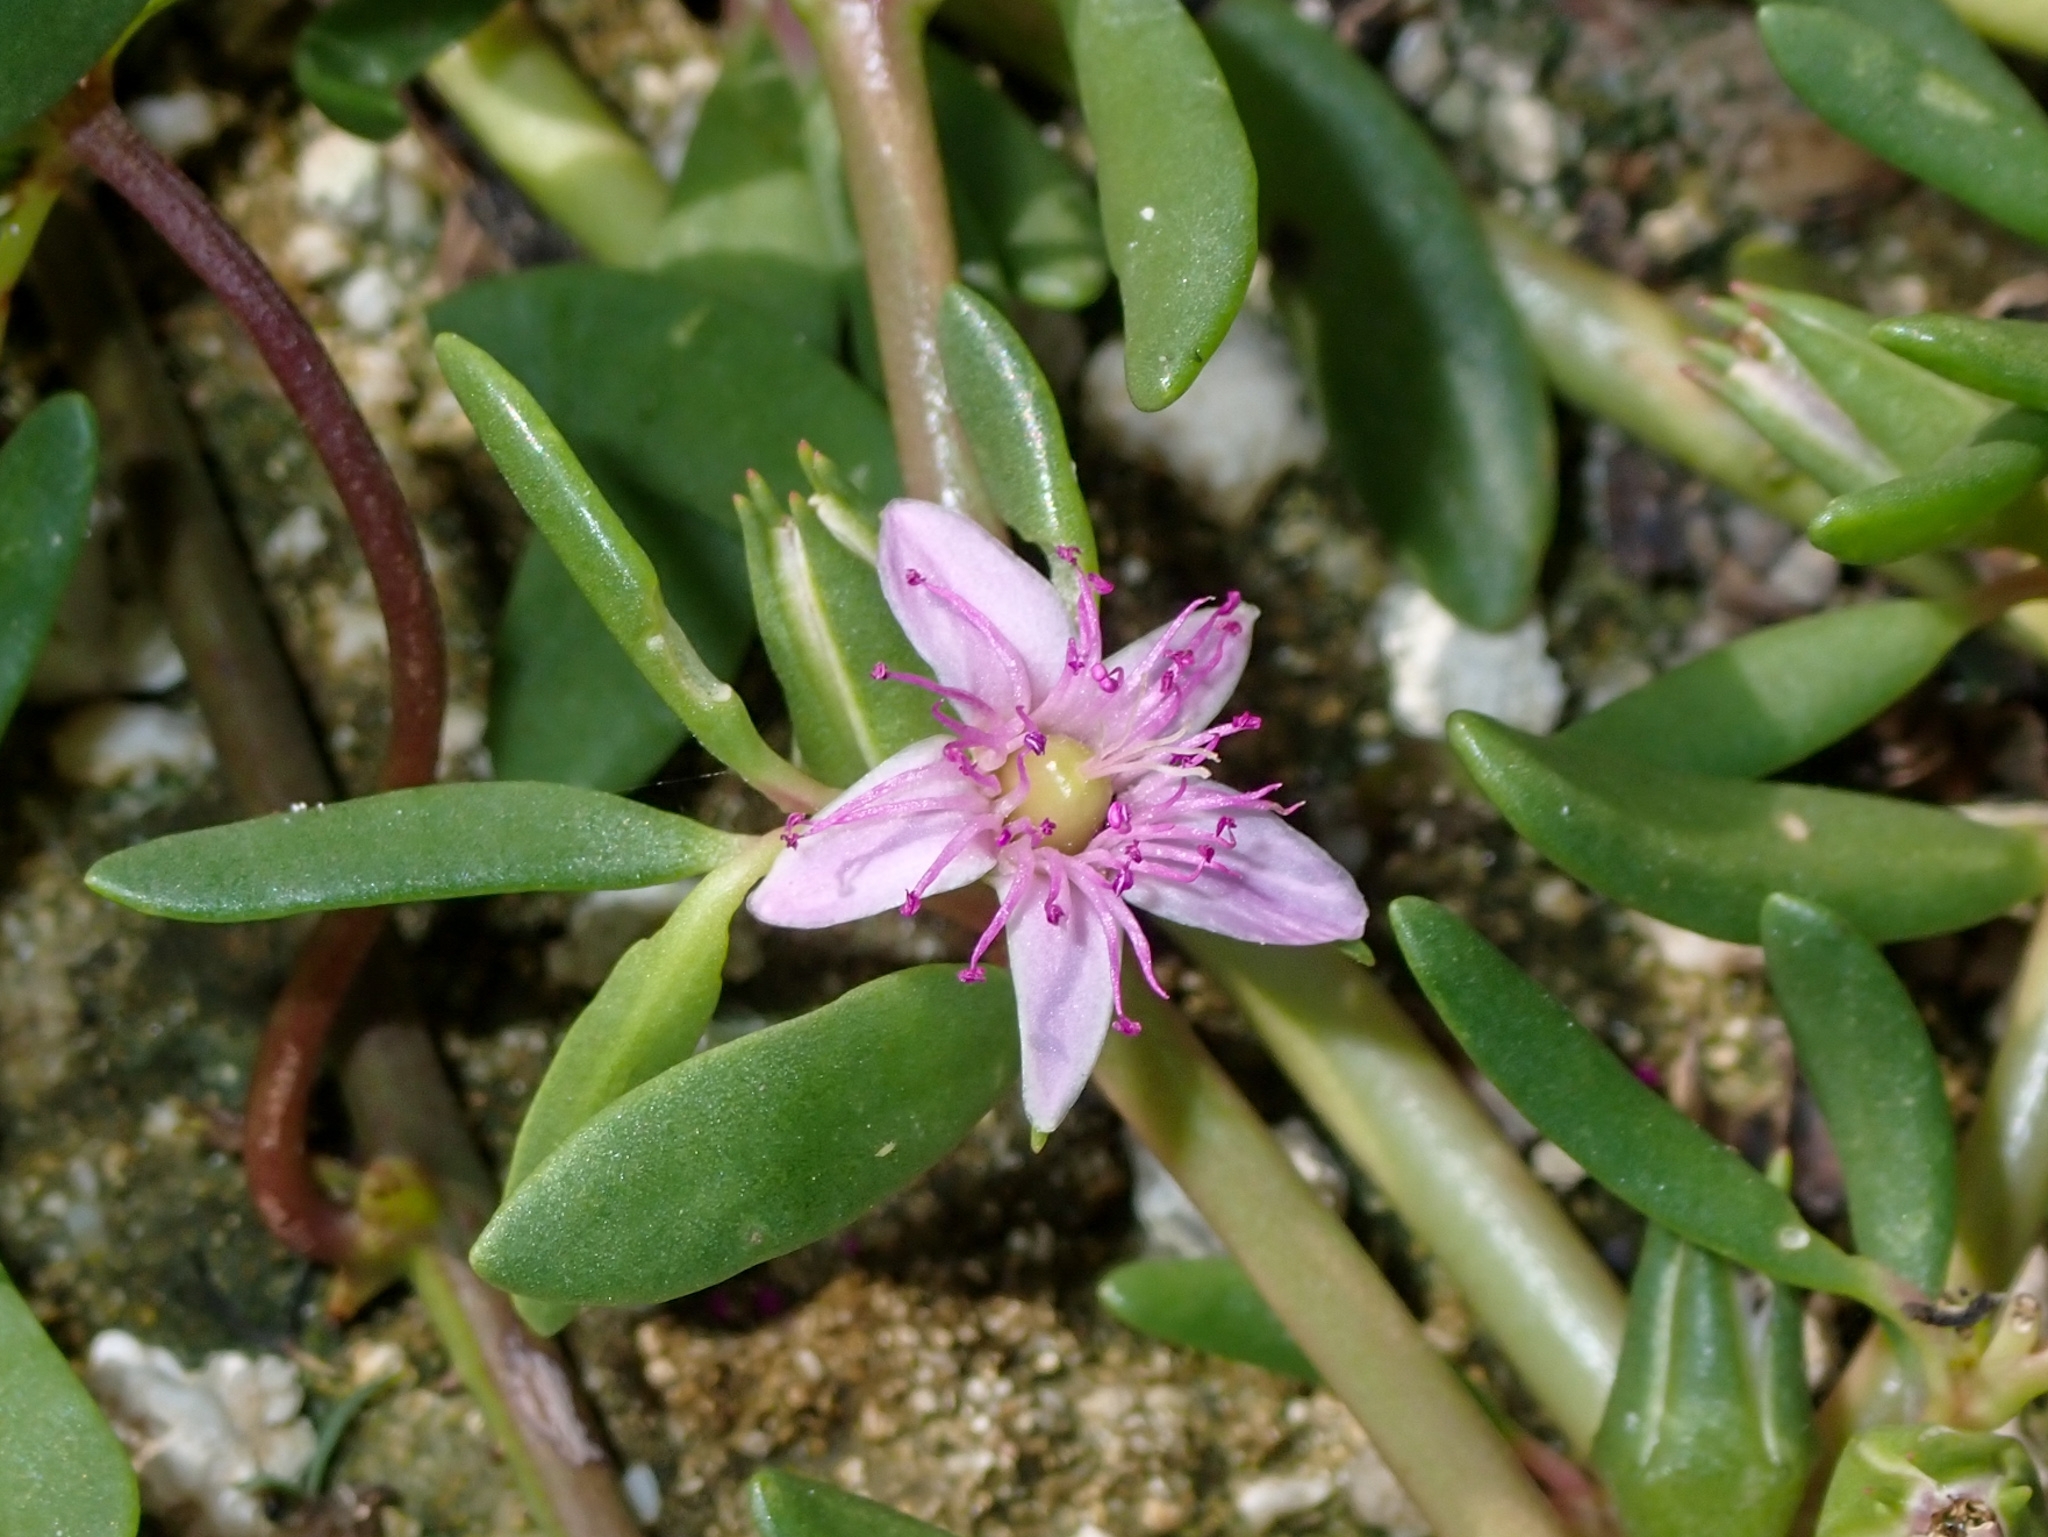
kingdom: Plantae
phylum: Tracheophyta
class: Magnoliopsida
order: Caryophyllales
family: Aizoaceae
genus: Sesuvium
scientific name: Sesuvium portulacastrum
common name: Sea-purslane
